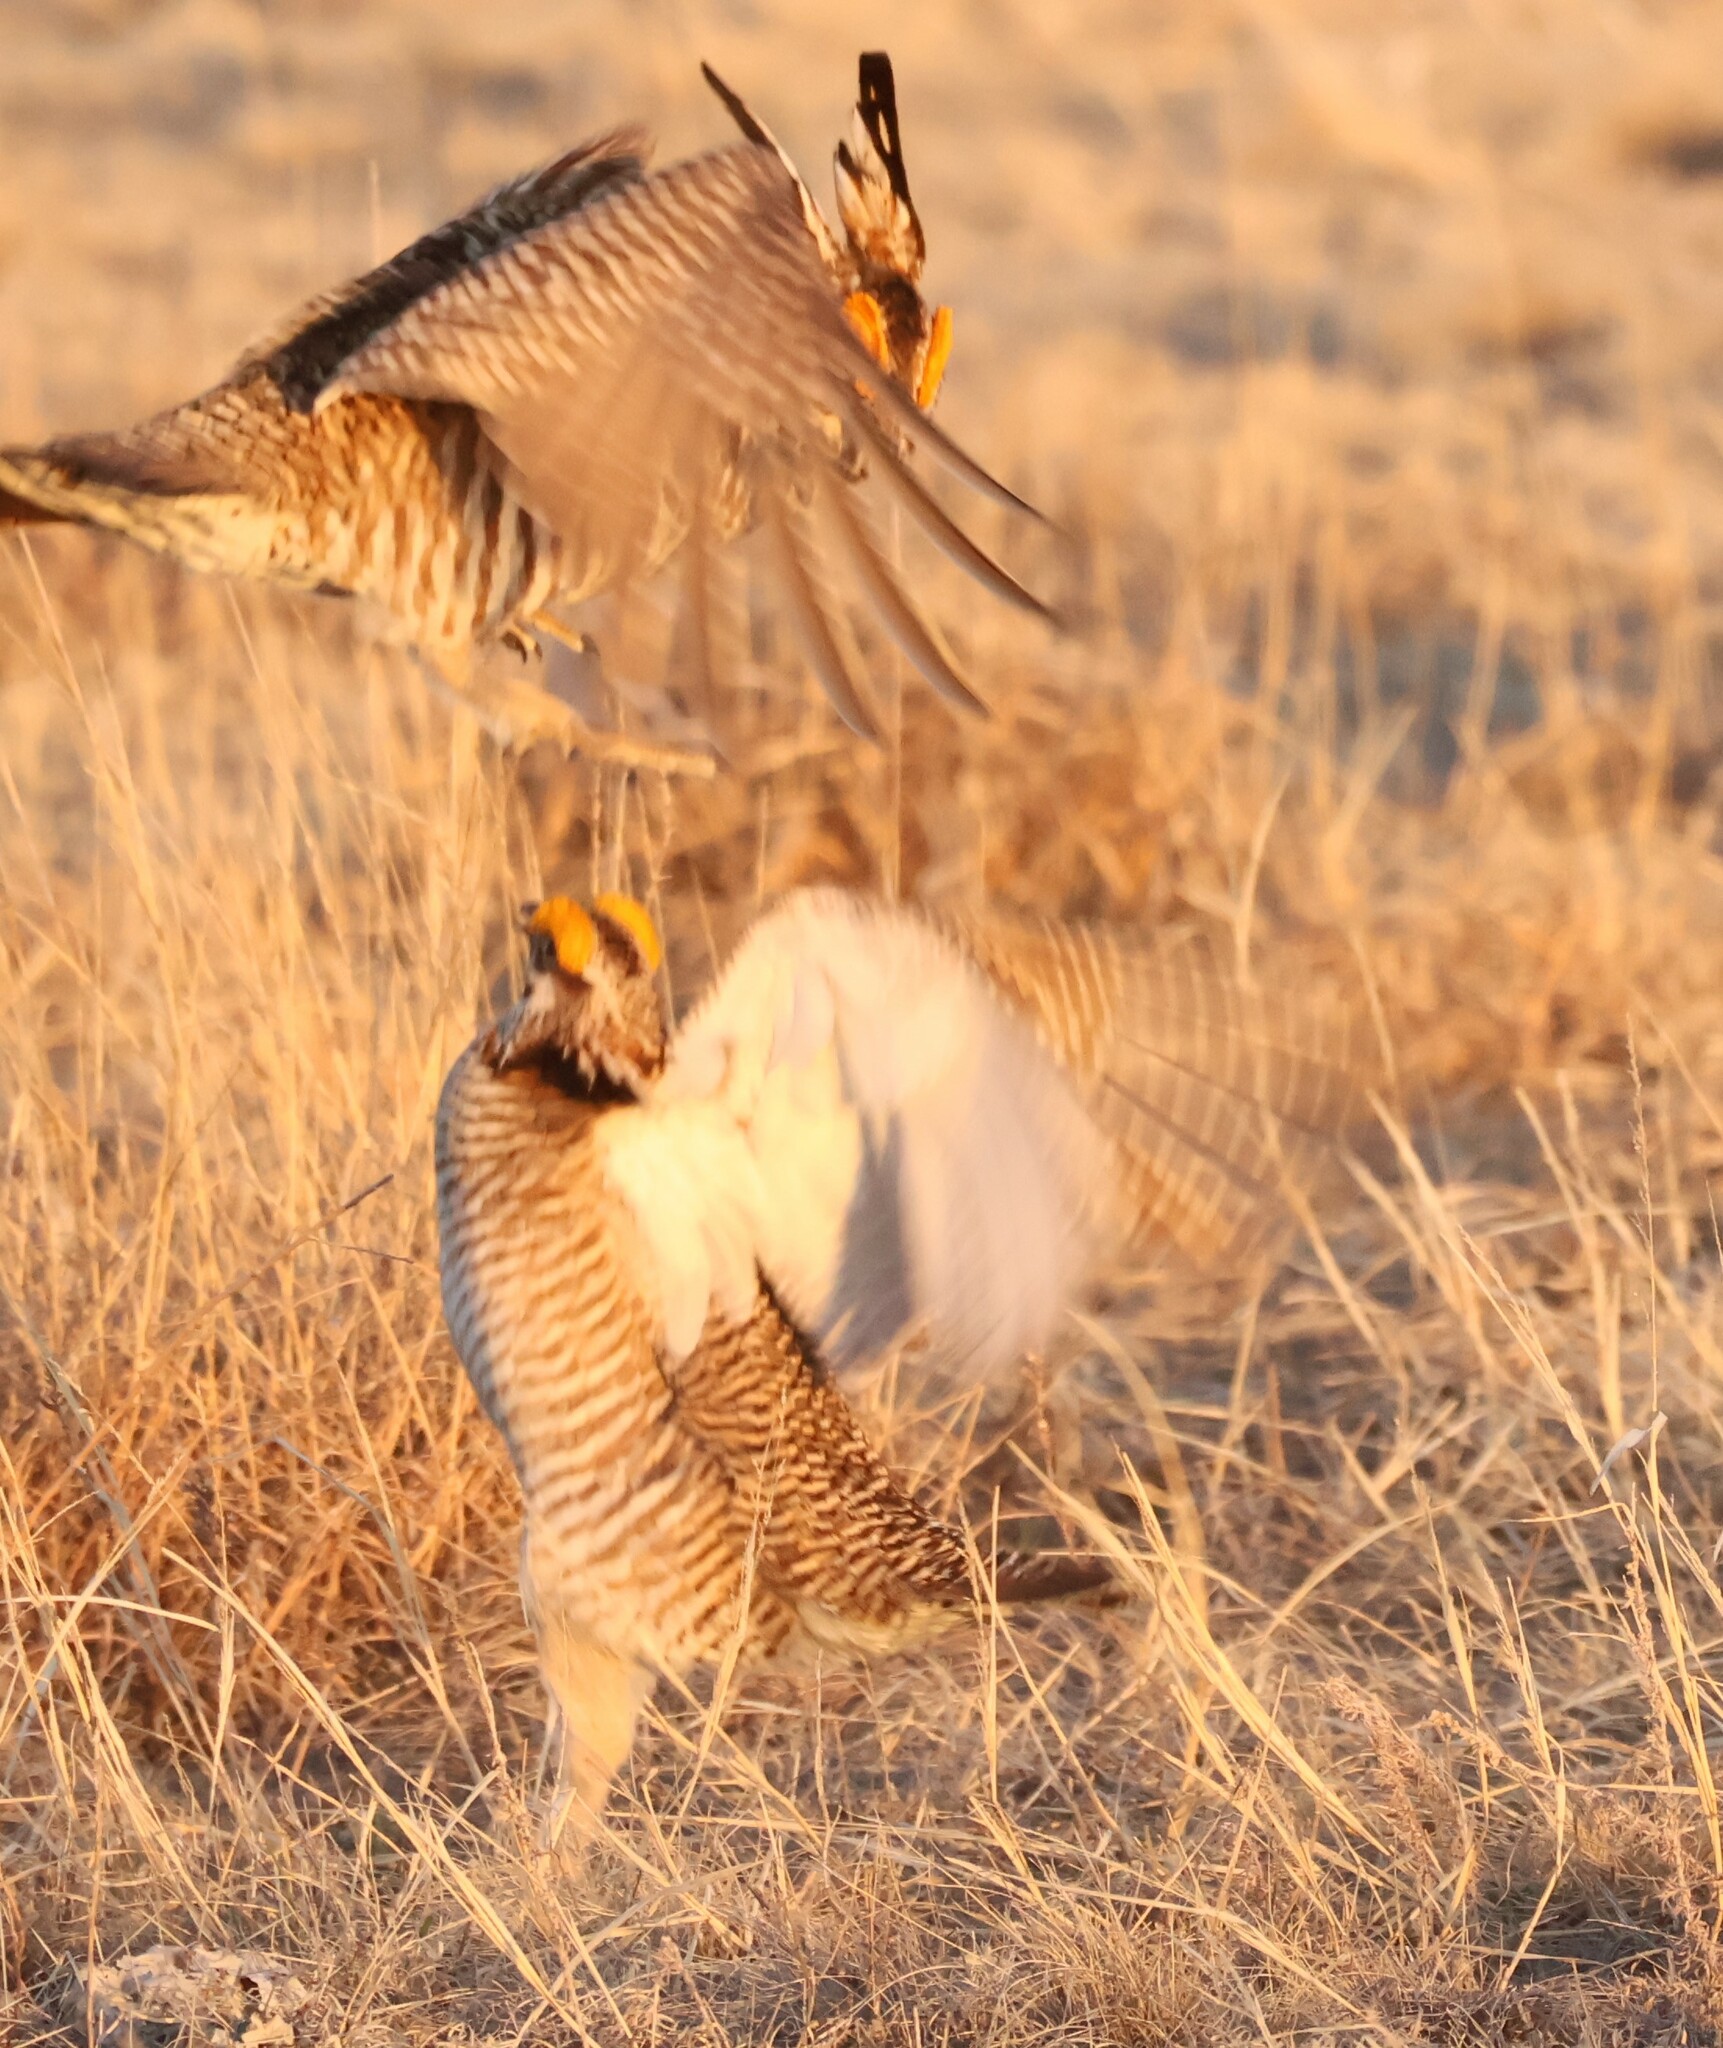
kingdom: Animalia
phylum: Chordata
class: Aves
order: Galliformes
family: Phasianidae
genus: Tympanuchus
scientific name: Tympanuchus pallidicinctus
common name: Lesser prairie chicken
